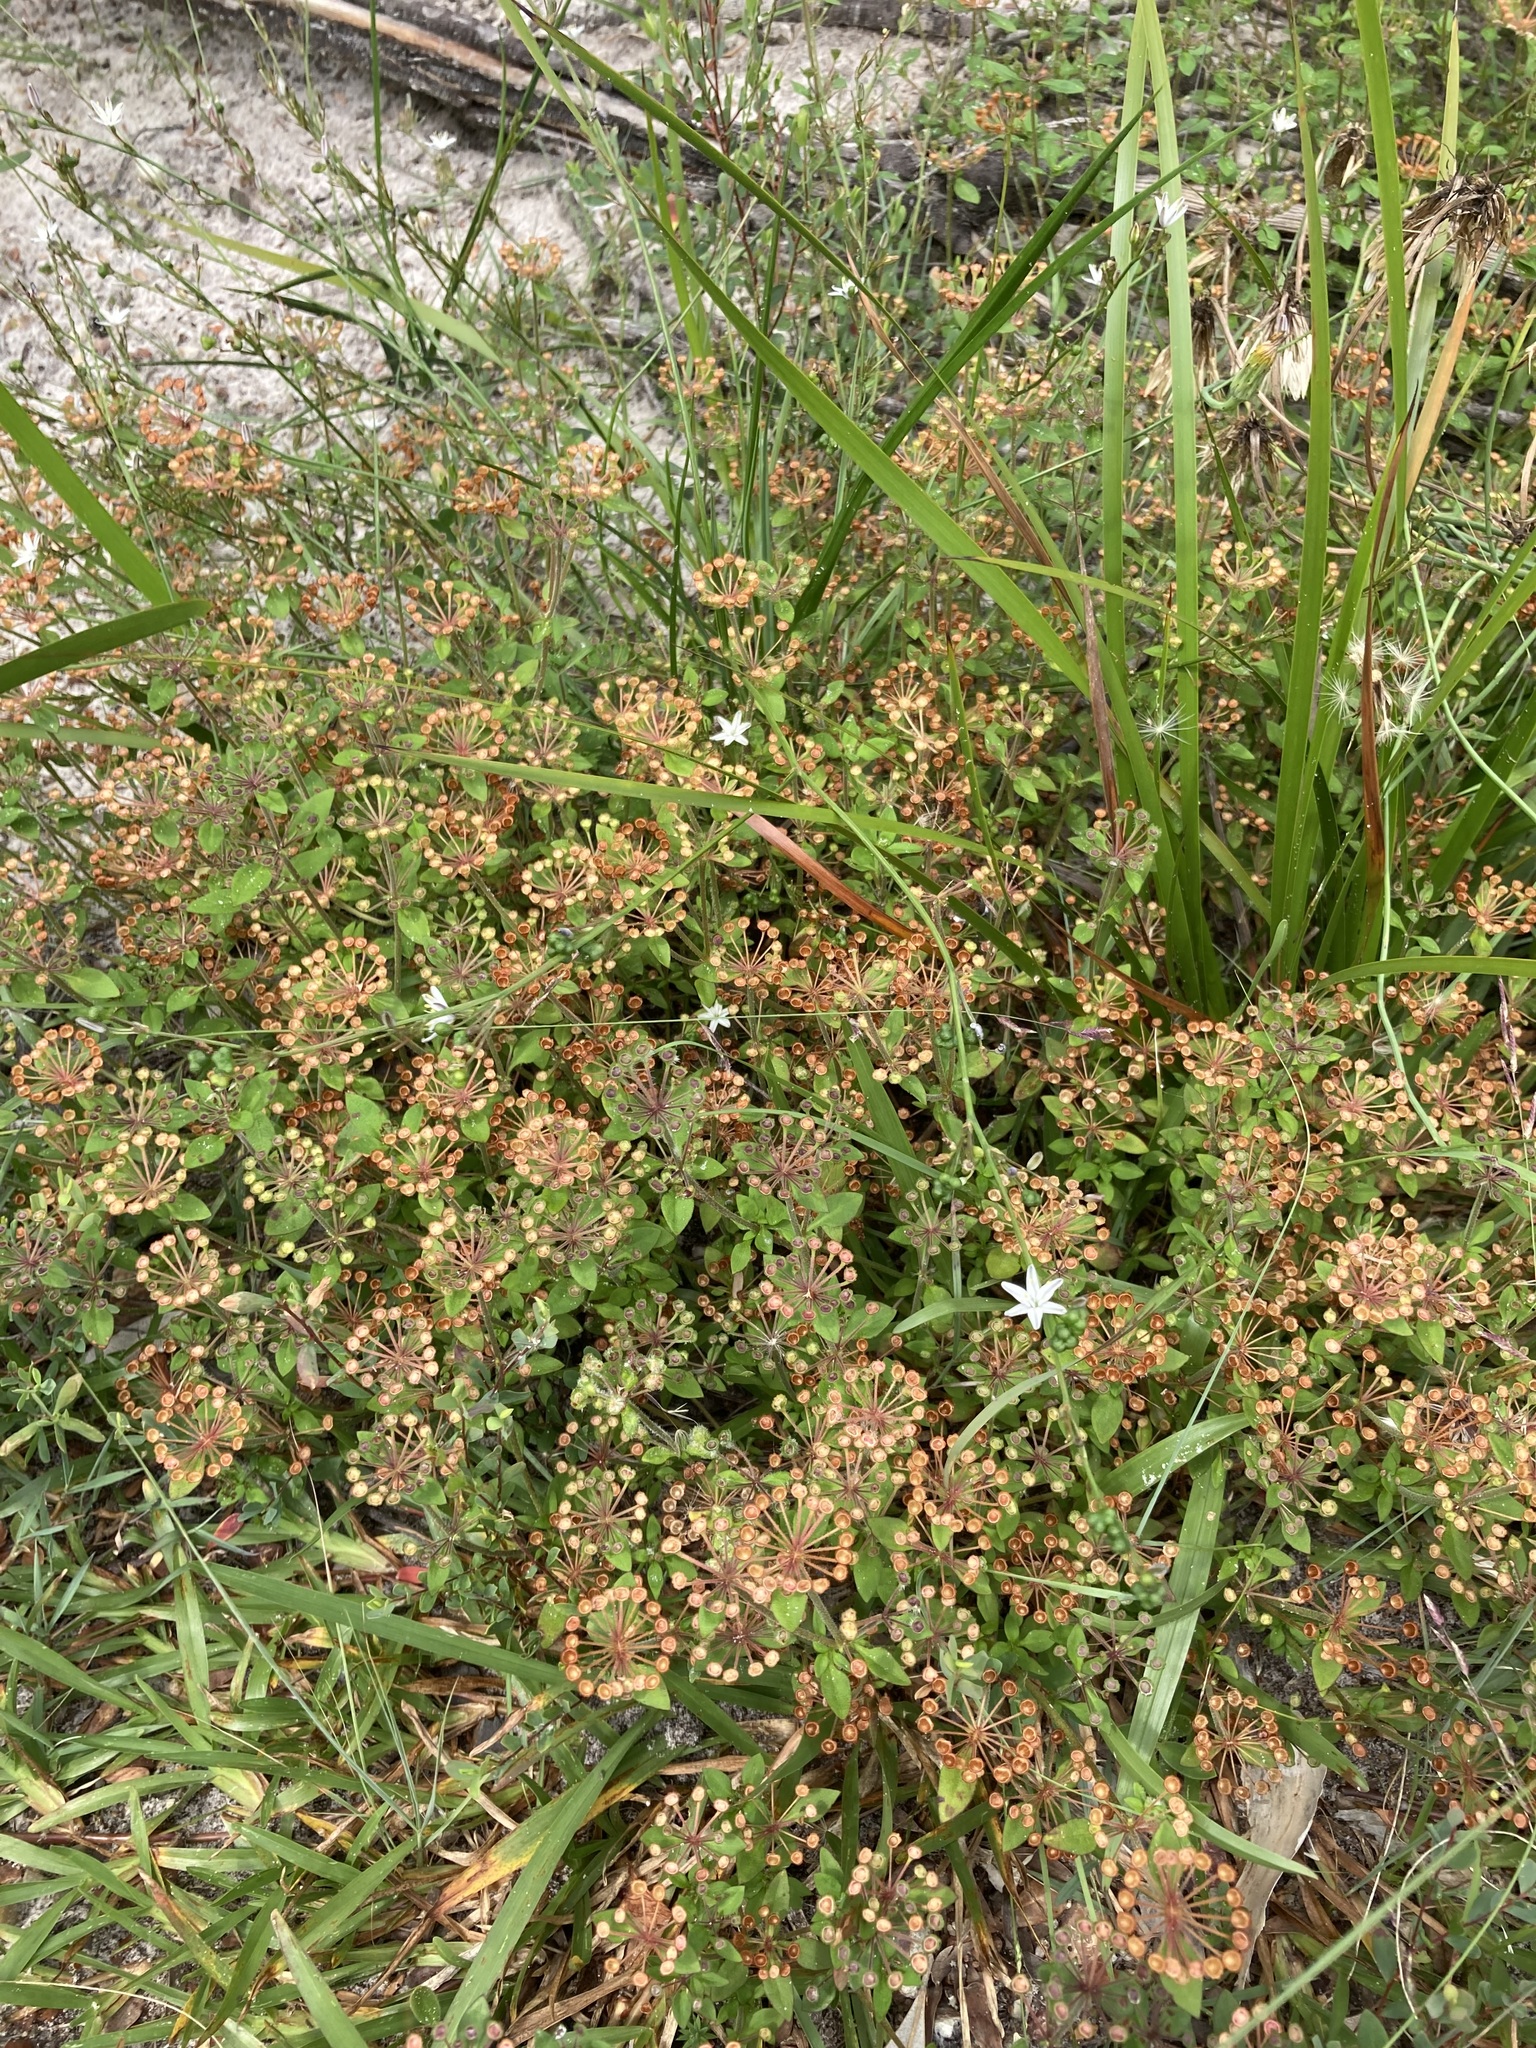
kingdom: Plantae
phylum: Tracheophyta
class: Magnoliopsida
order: Gentianales
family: Rubiaceae
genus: Pomax
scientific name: Pomax umbellata
